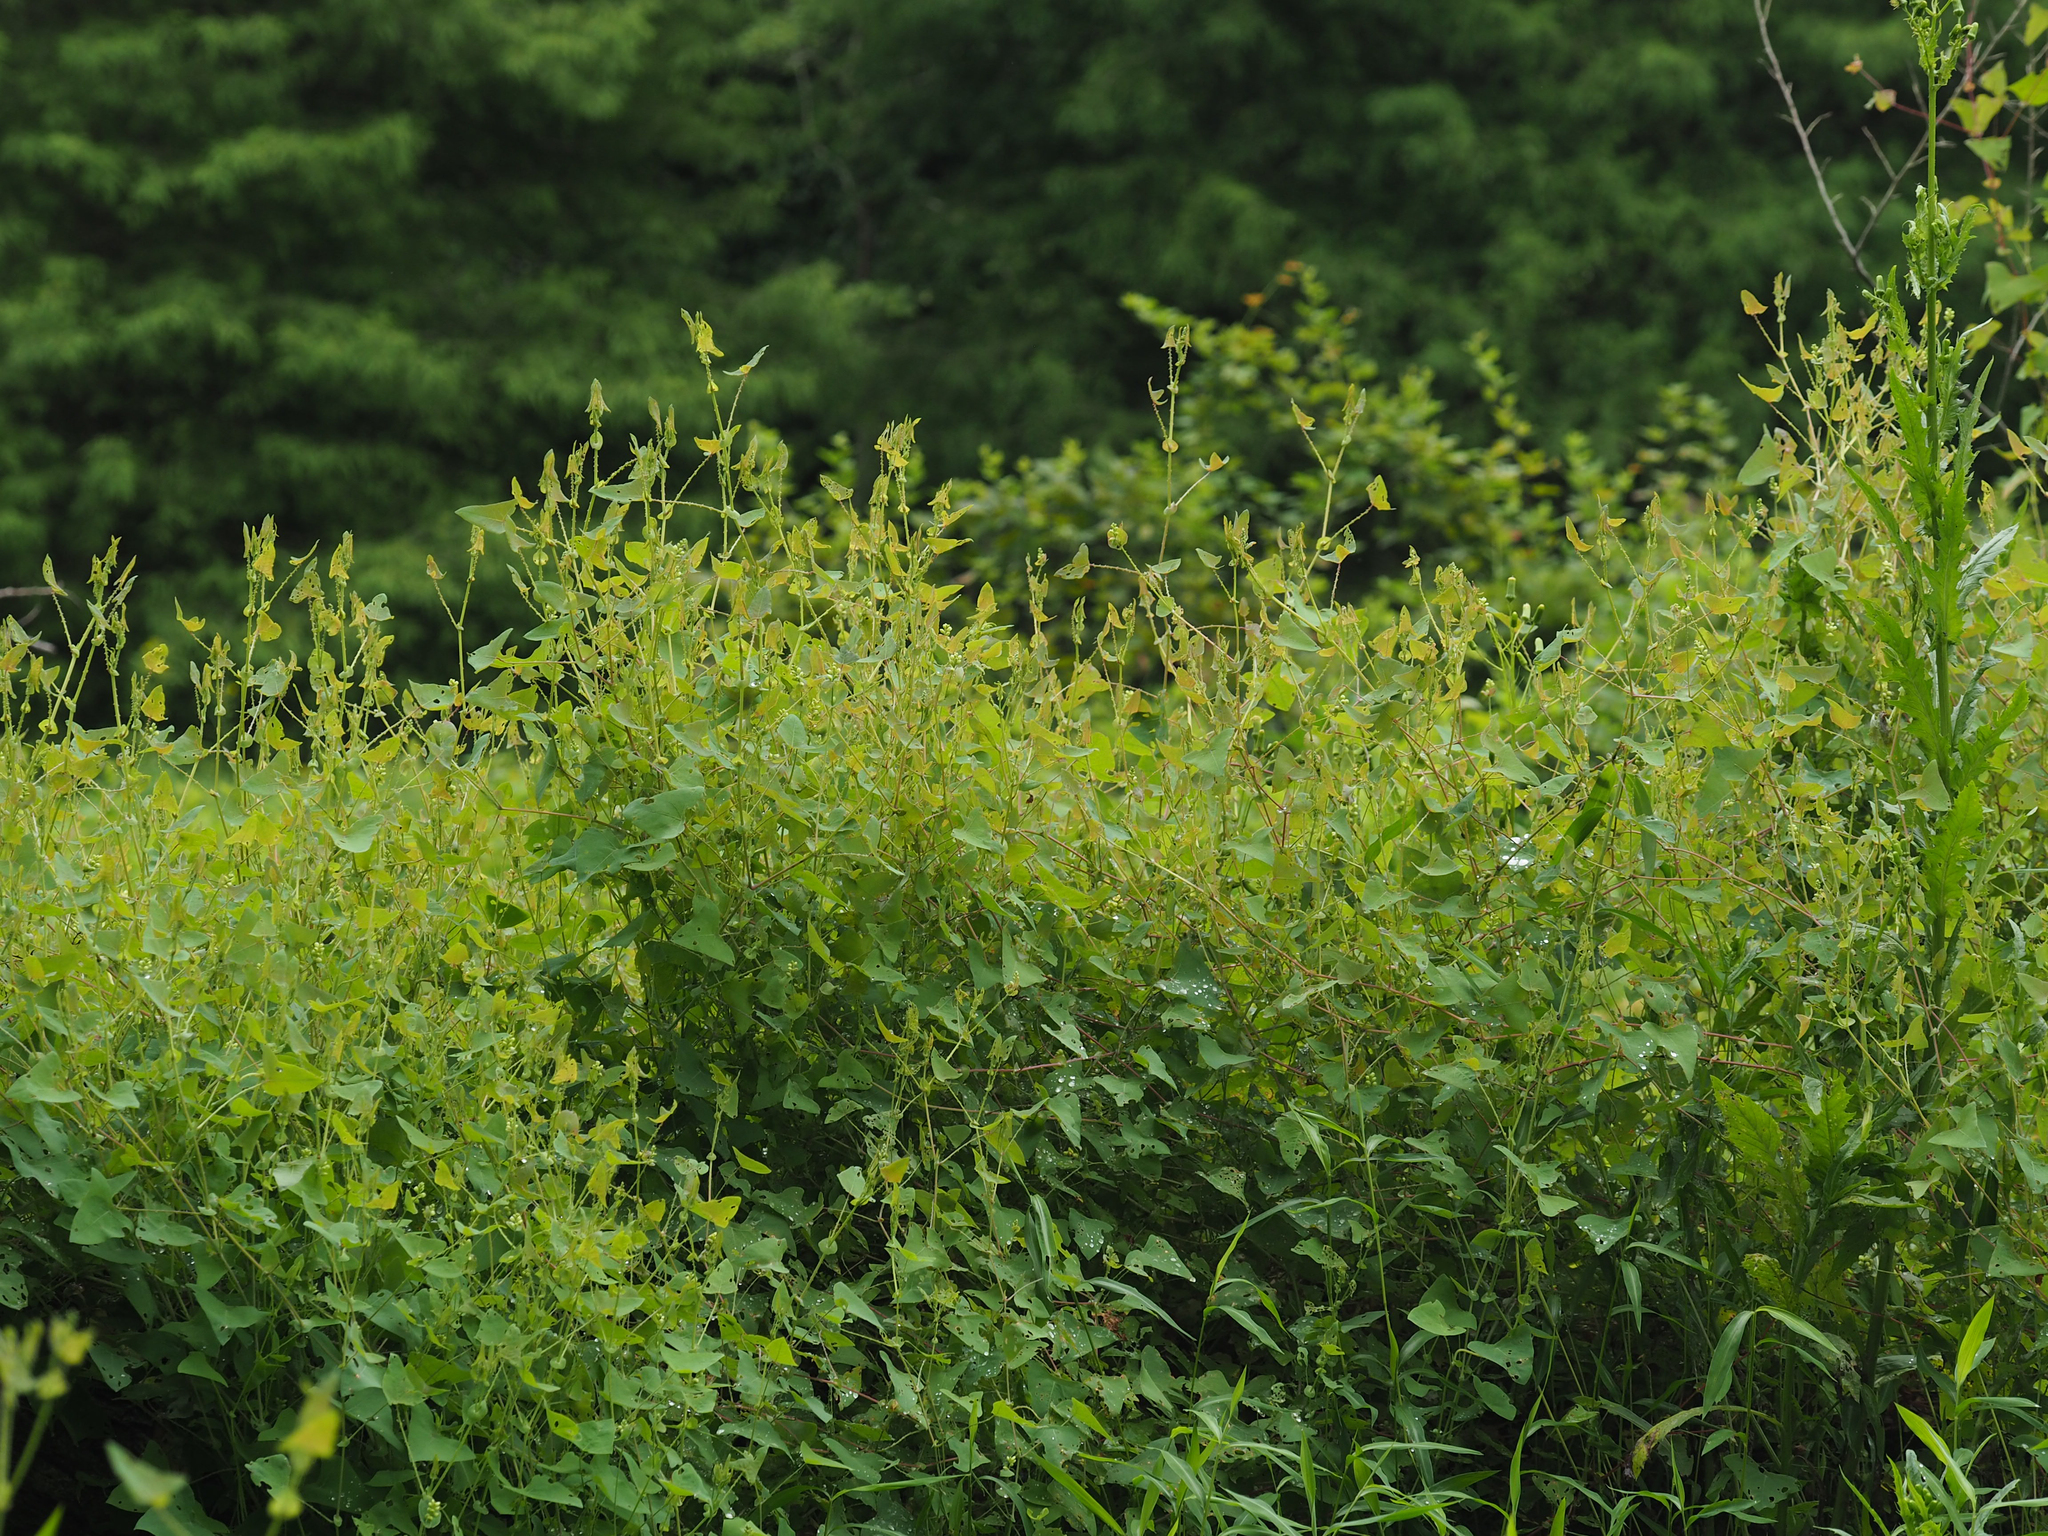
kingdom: Plantae
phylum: Tracheophyta
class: Magnoliopsida
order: Caryophyllales
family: Polygonaceae
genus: Persicaria
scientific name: Persicaria perfoliata
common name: Asiatic tearthumb
